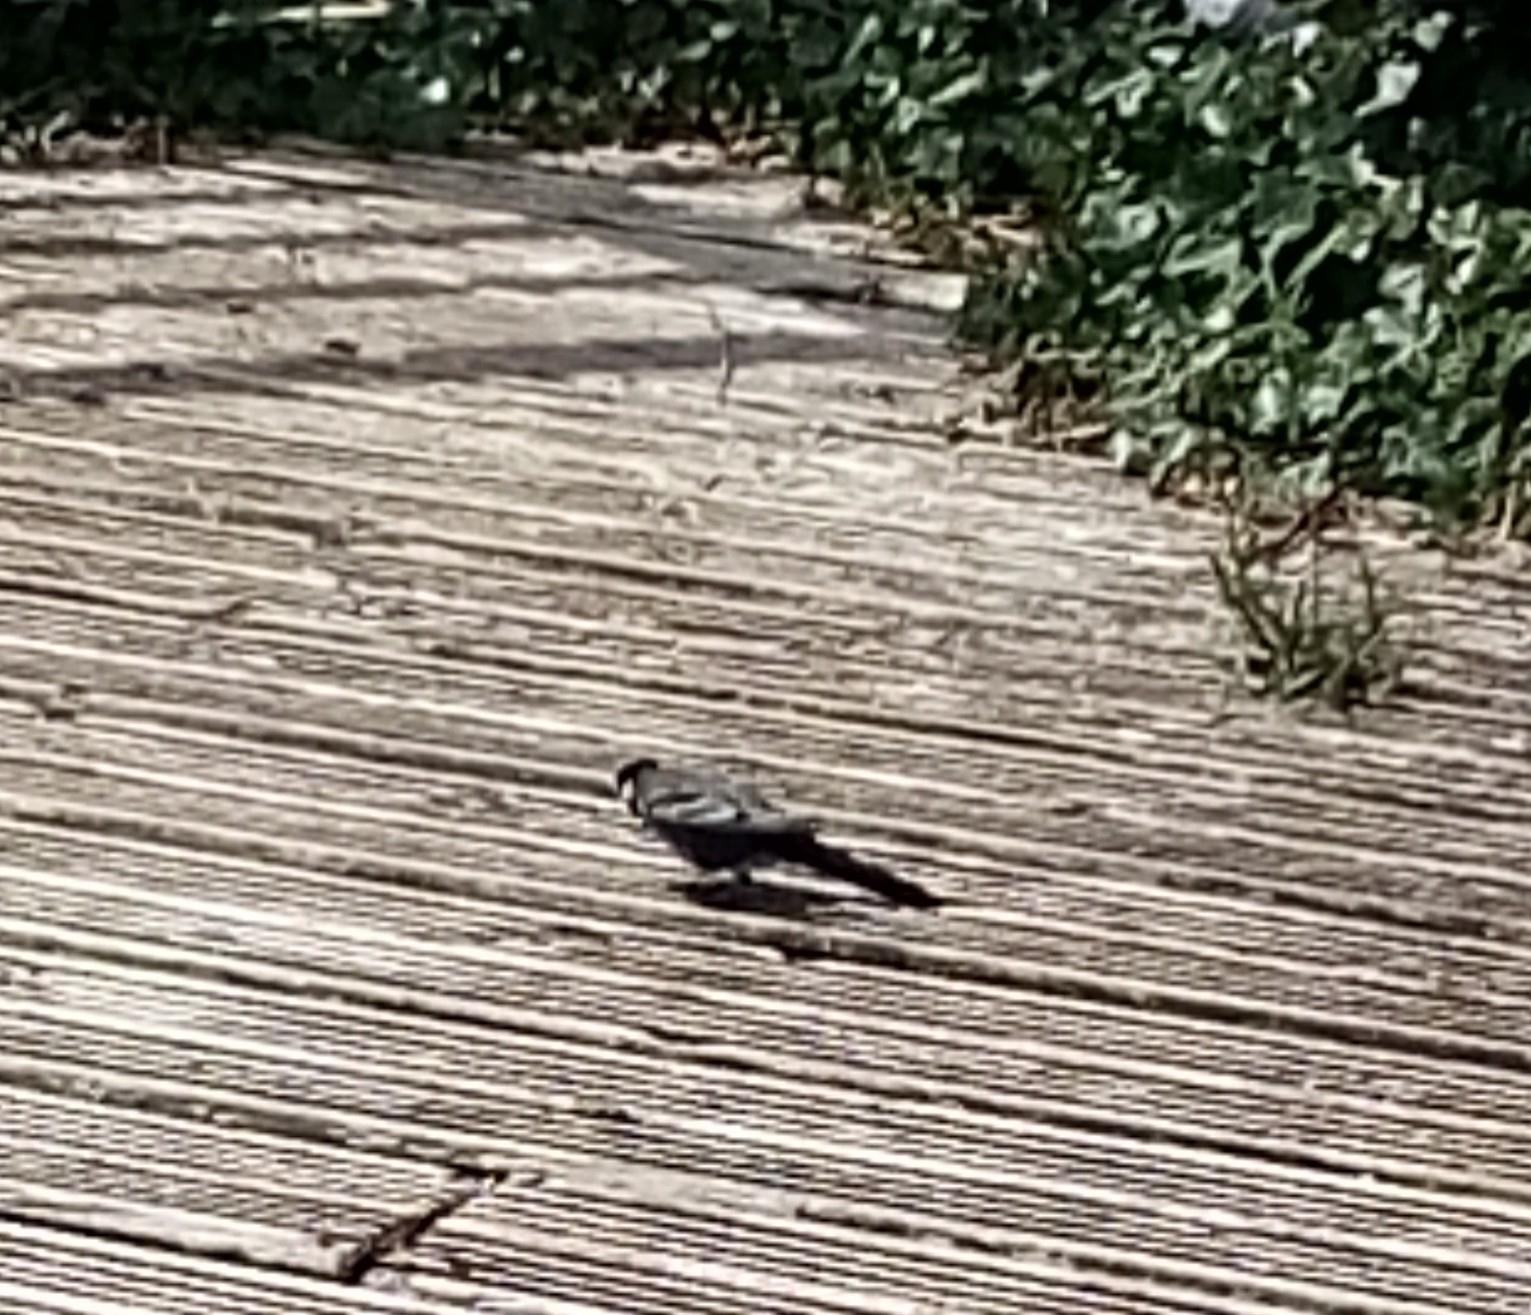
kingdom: Animalia
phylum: Chordata
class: Aves
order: Passeriformes
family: Motacillidae
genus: Motacilla
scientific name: Motacilla alba
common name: White wagtail
